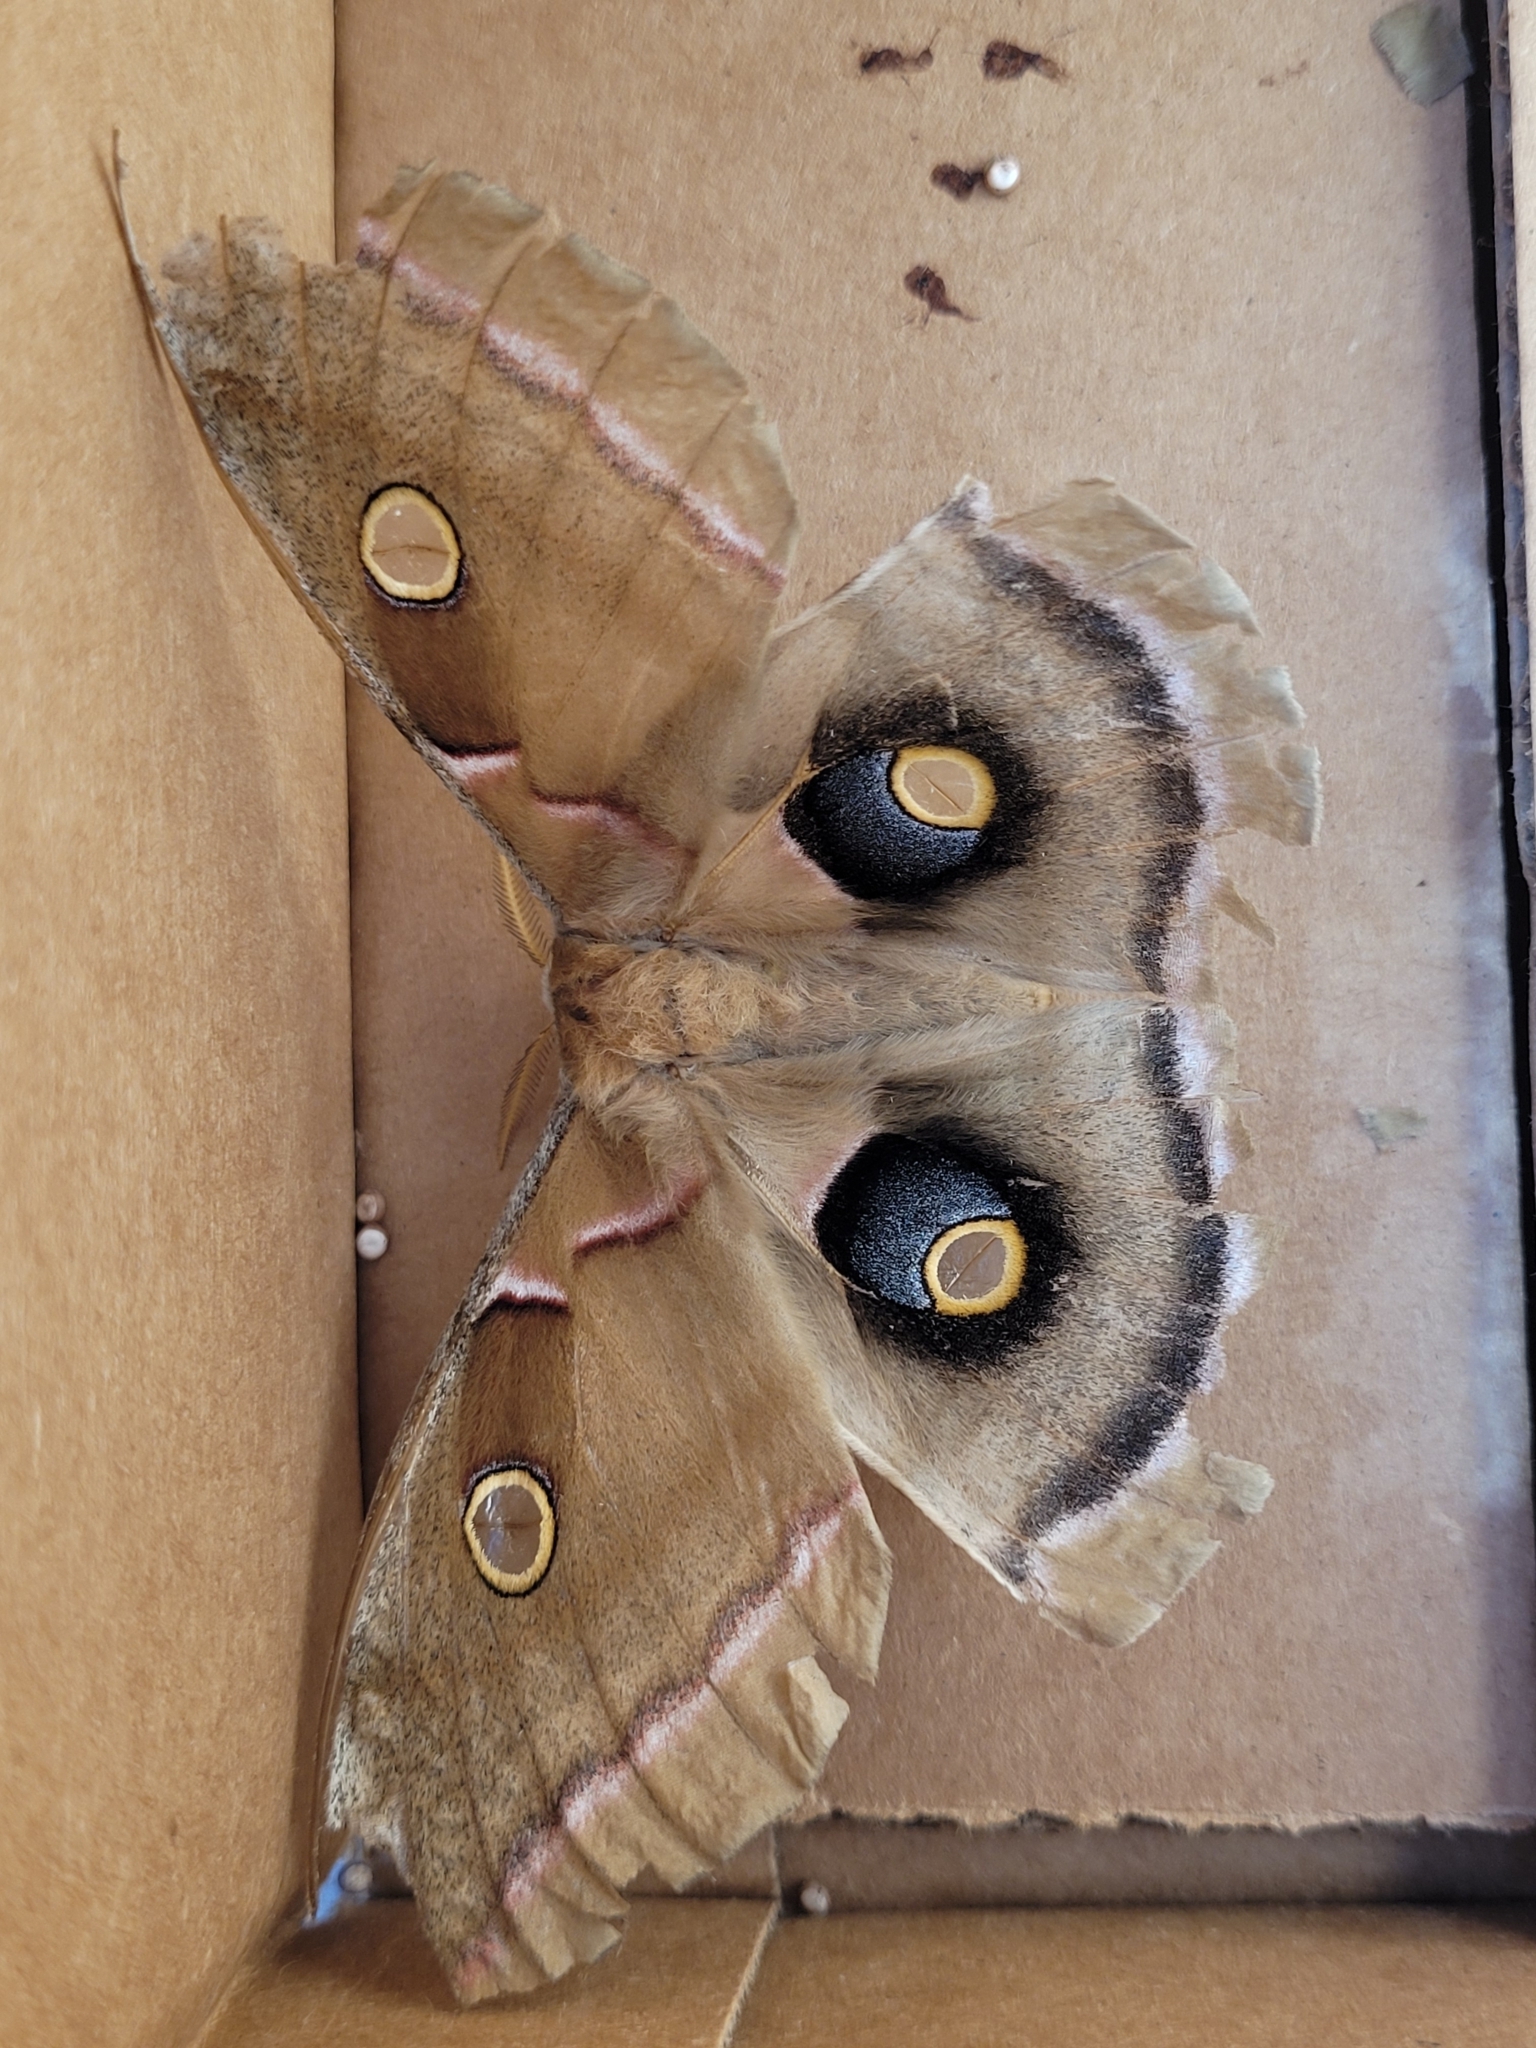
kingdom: Animalia
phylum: Arthropoda
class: Insecta
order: Lepidoptera
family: Saturniidae
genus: Antheraea
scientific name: Antheraea polyphemus
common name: Polyphemus moth
